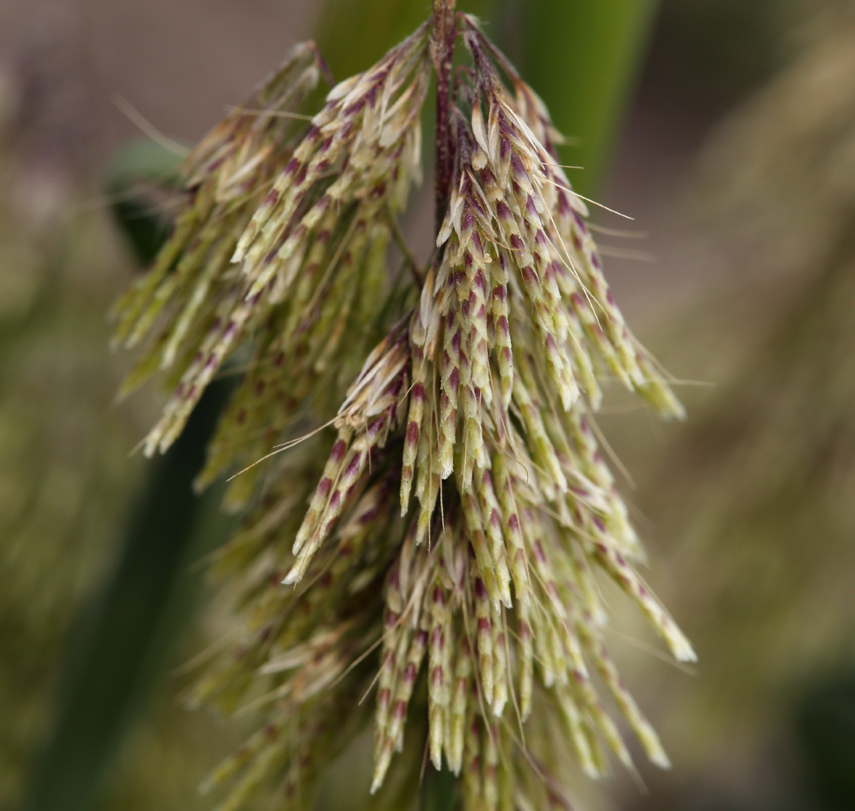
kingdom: Plantae
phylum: Tracheophyta
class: Liliopsida
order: Poales
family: Poaceae
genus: Lamarckia
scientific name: Lamarckia aurea
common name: Golden dog's-tail
